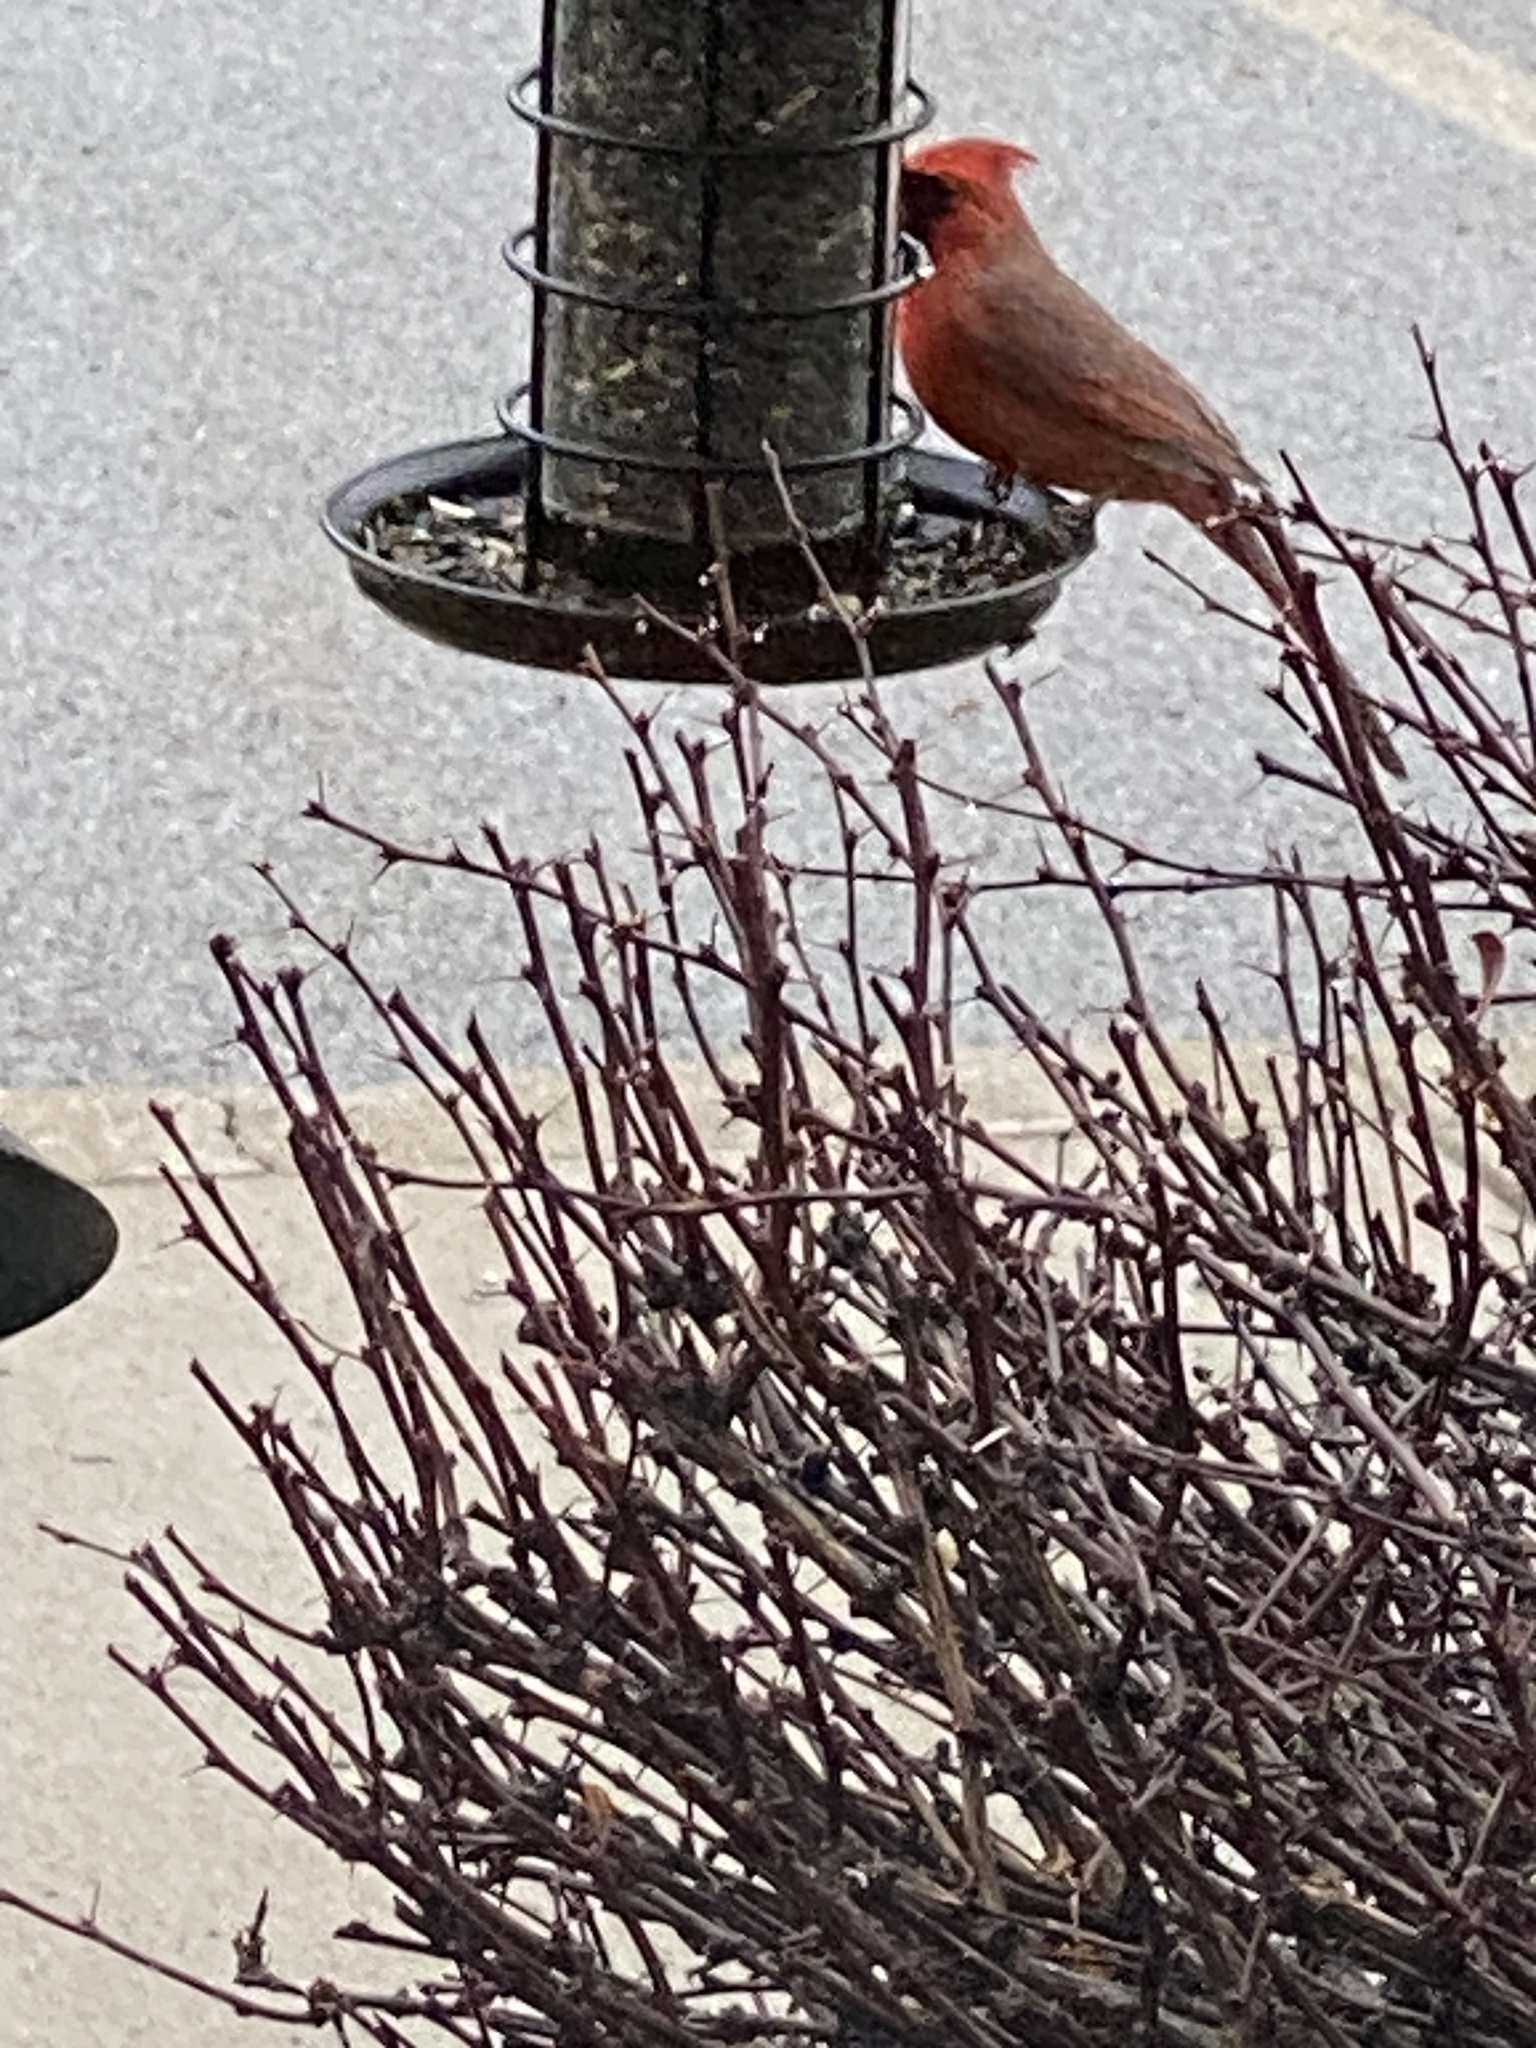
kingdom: Animalia
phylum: Chordata
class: Aves
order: Passeriformes
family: Cardinalidae
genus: Cardinalis
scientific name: Cardinalis cardinalis
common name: Northern cardinal
